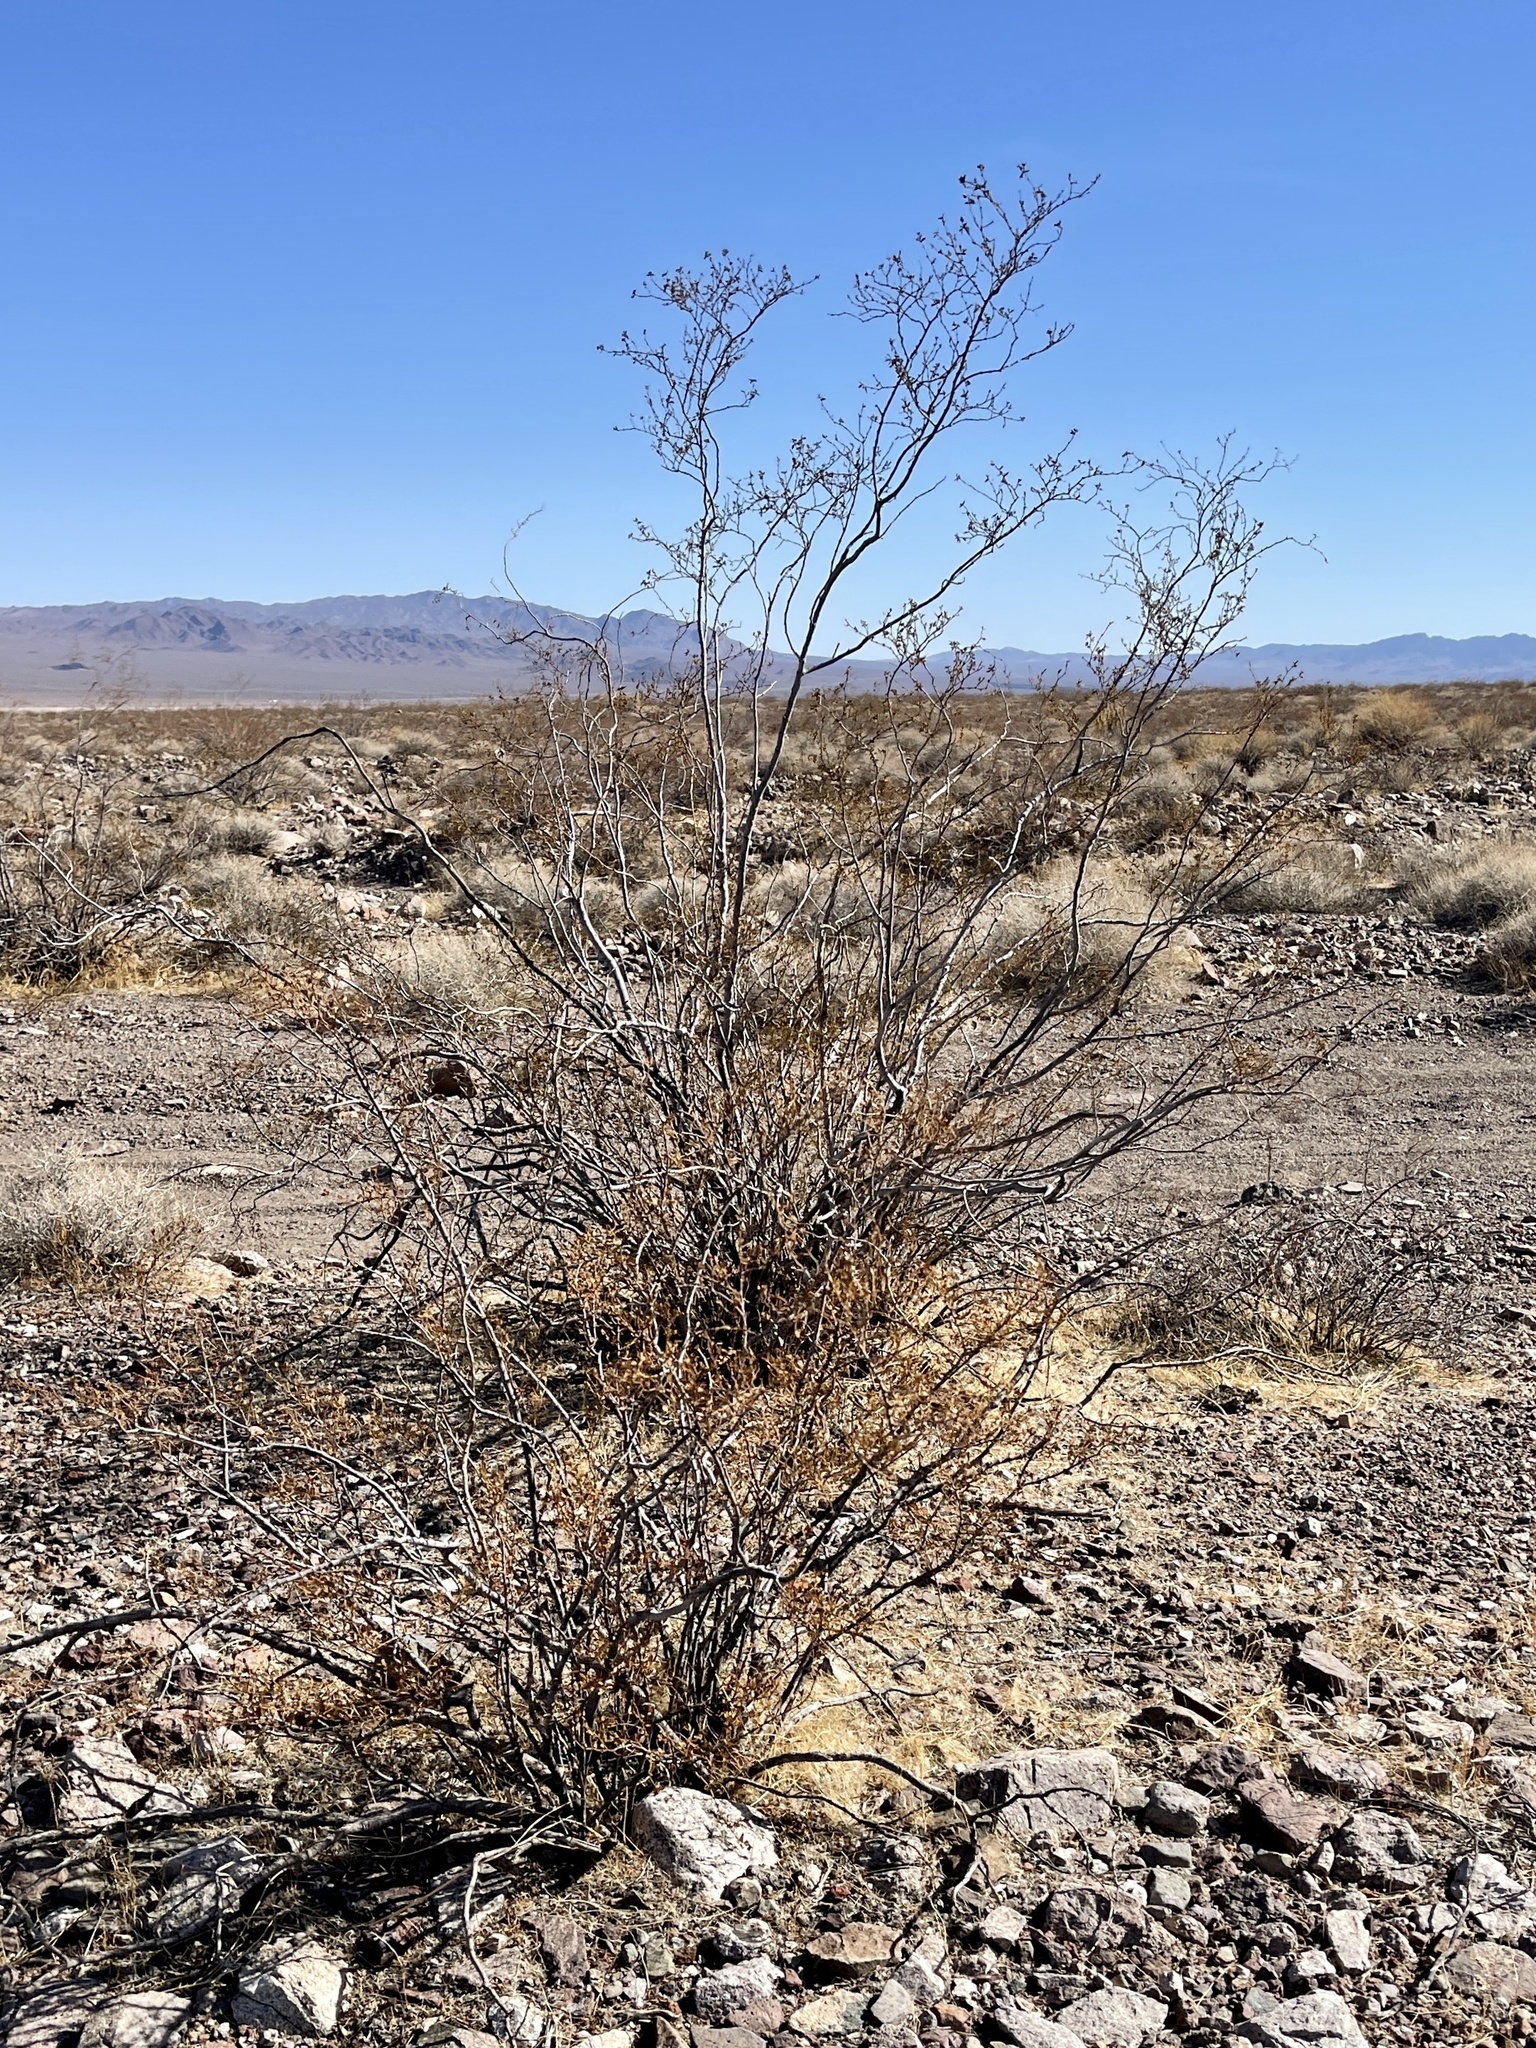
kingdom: Plantae
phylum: Tracheophyta
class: Magnoliopsida
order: Zygophyllales
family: Zygophyllaceae
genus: Larrea
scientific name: Larrea tridentata
